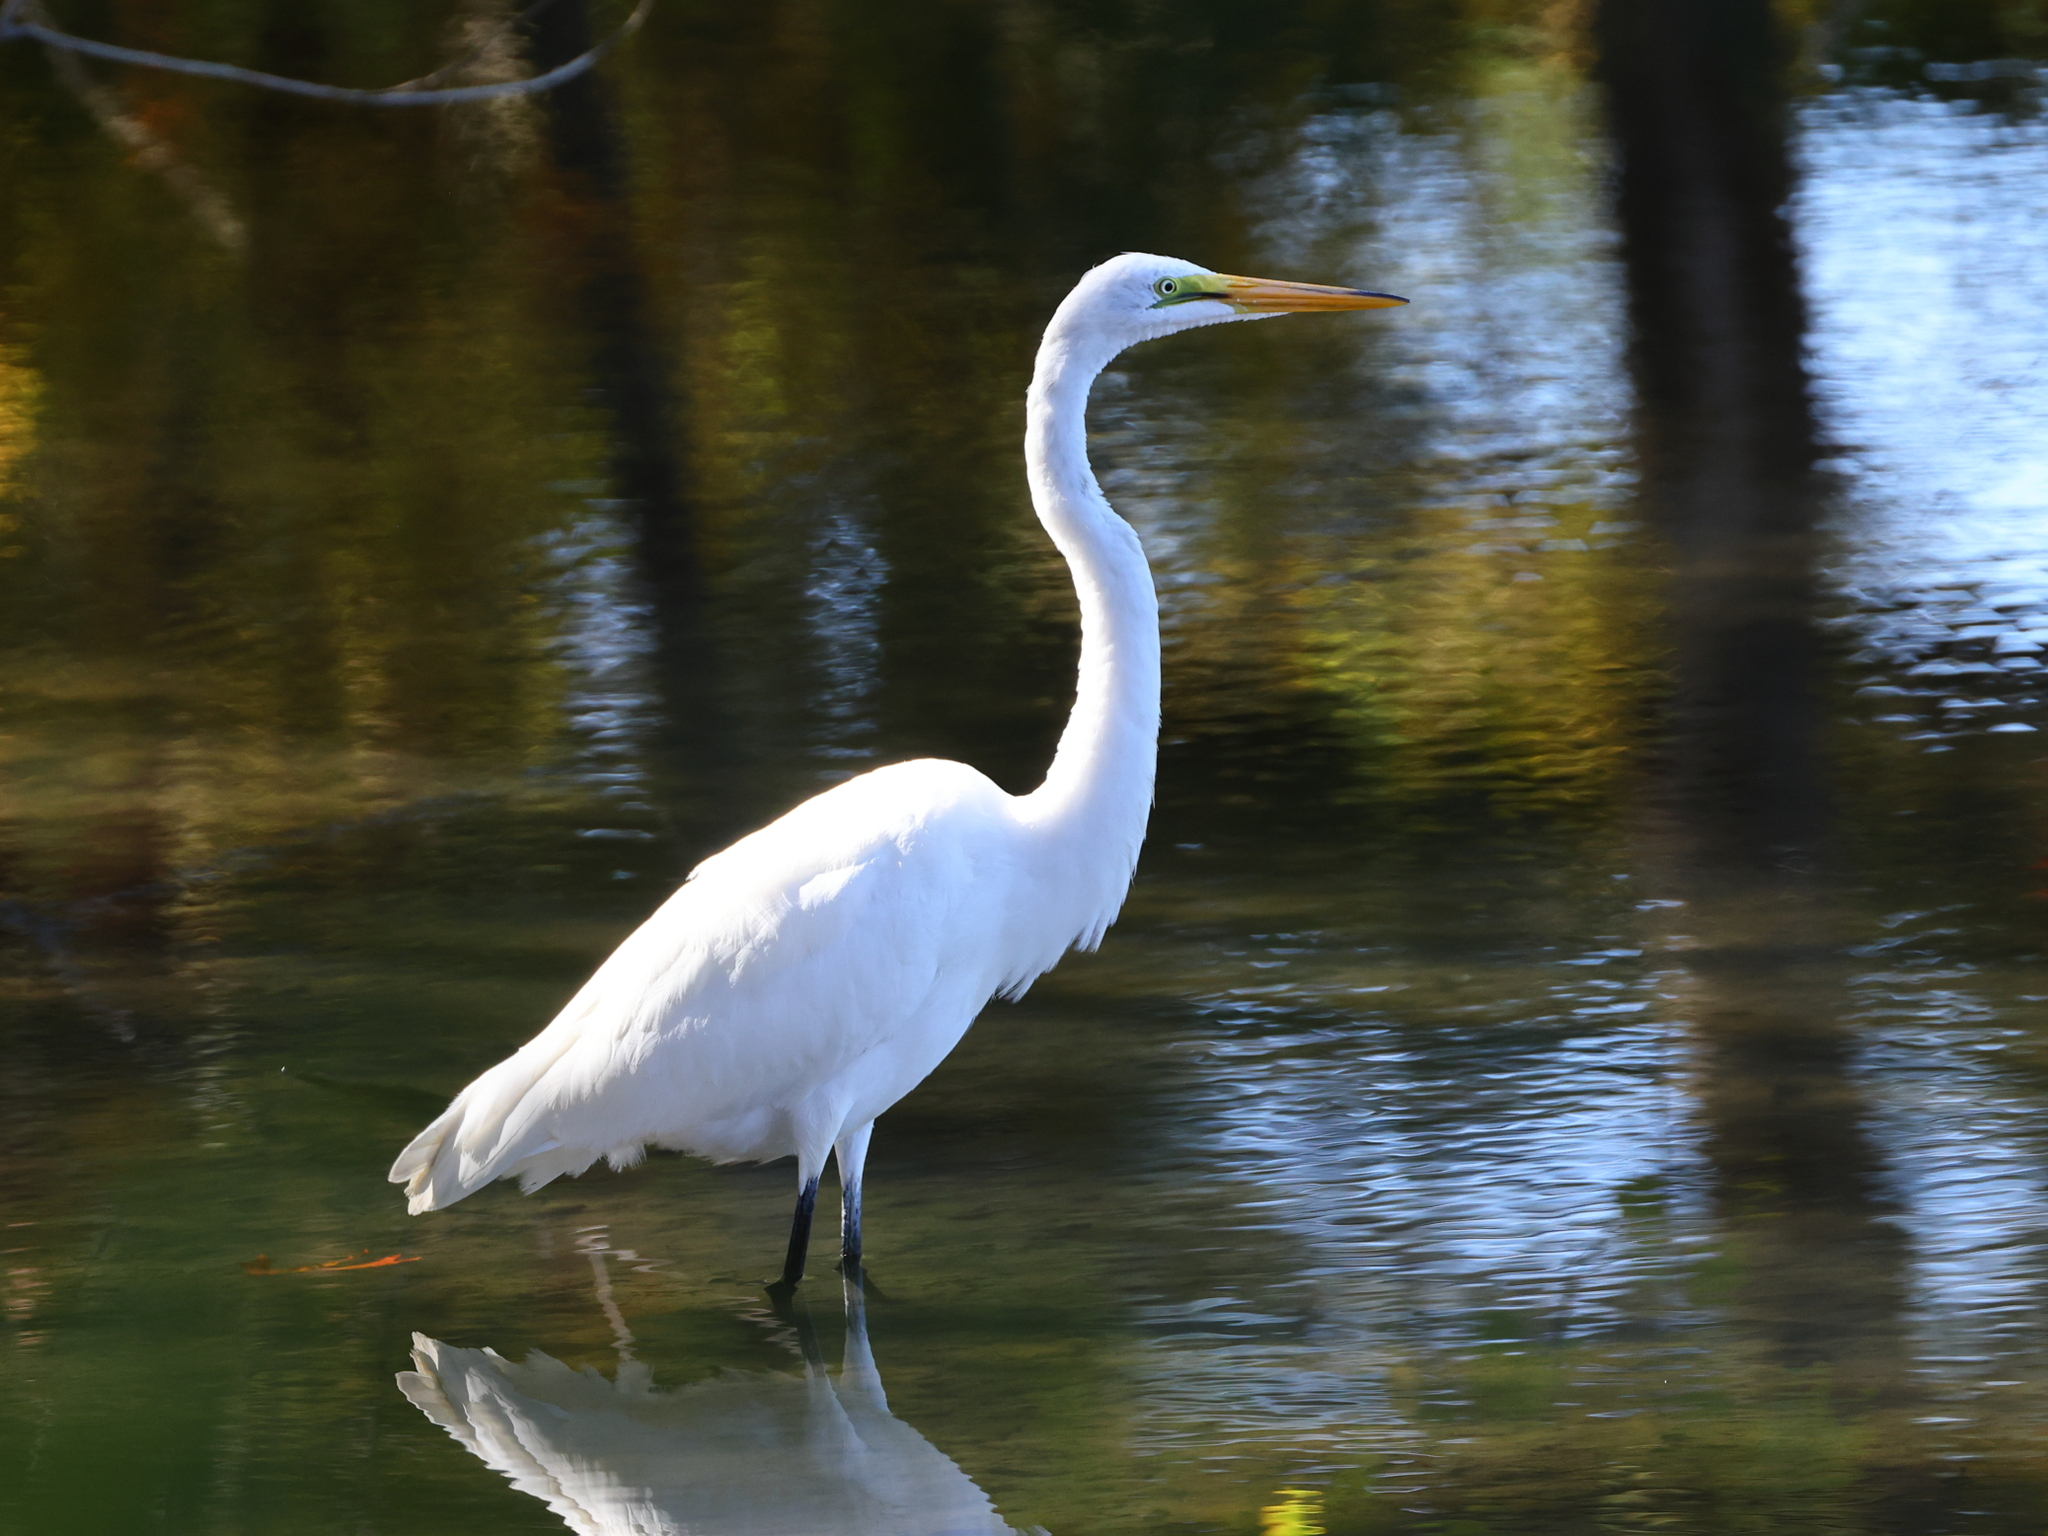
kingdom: Animalia
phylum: Chordata
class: Aves
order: Pelecaniformes
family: Ardeidae
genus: Ardea
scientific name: Ardea alba
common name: Great egret
